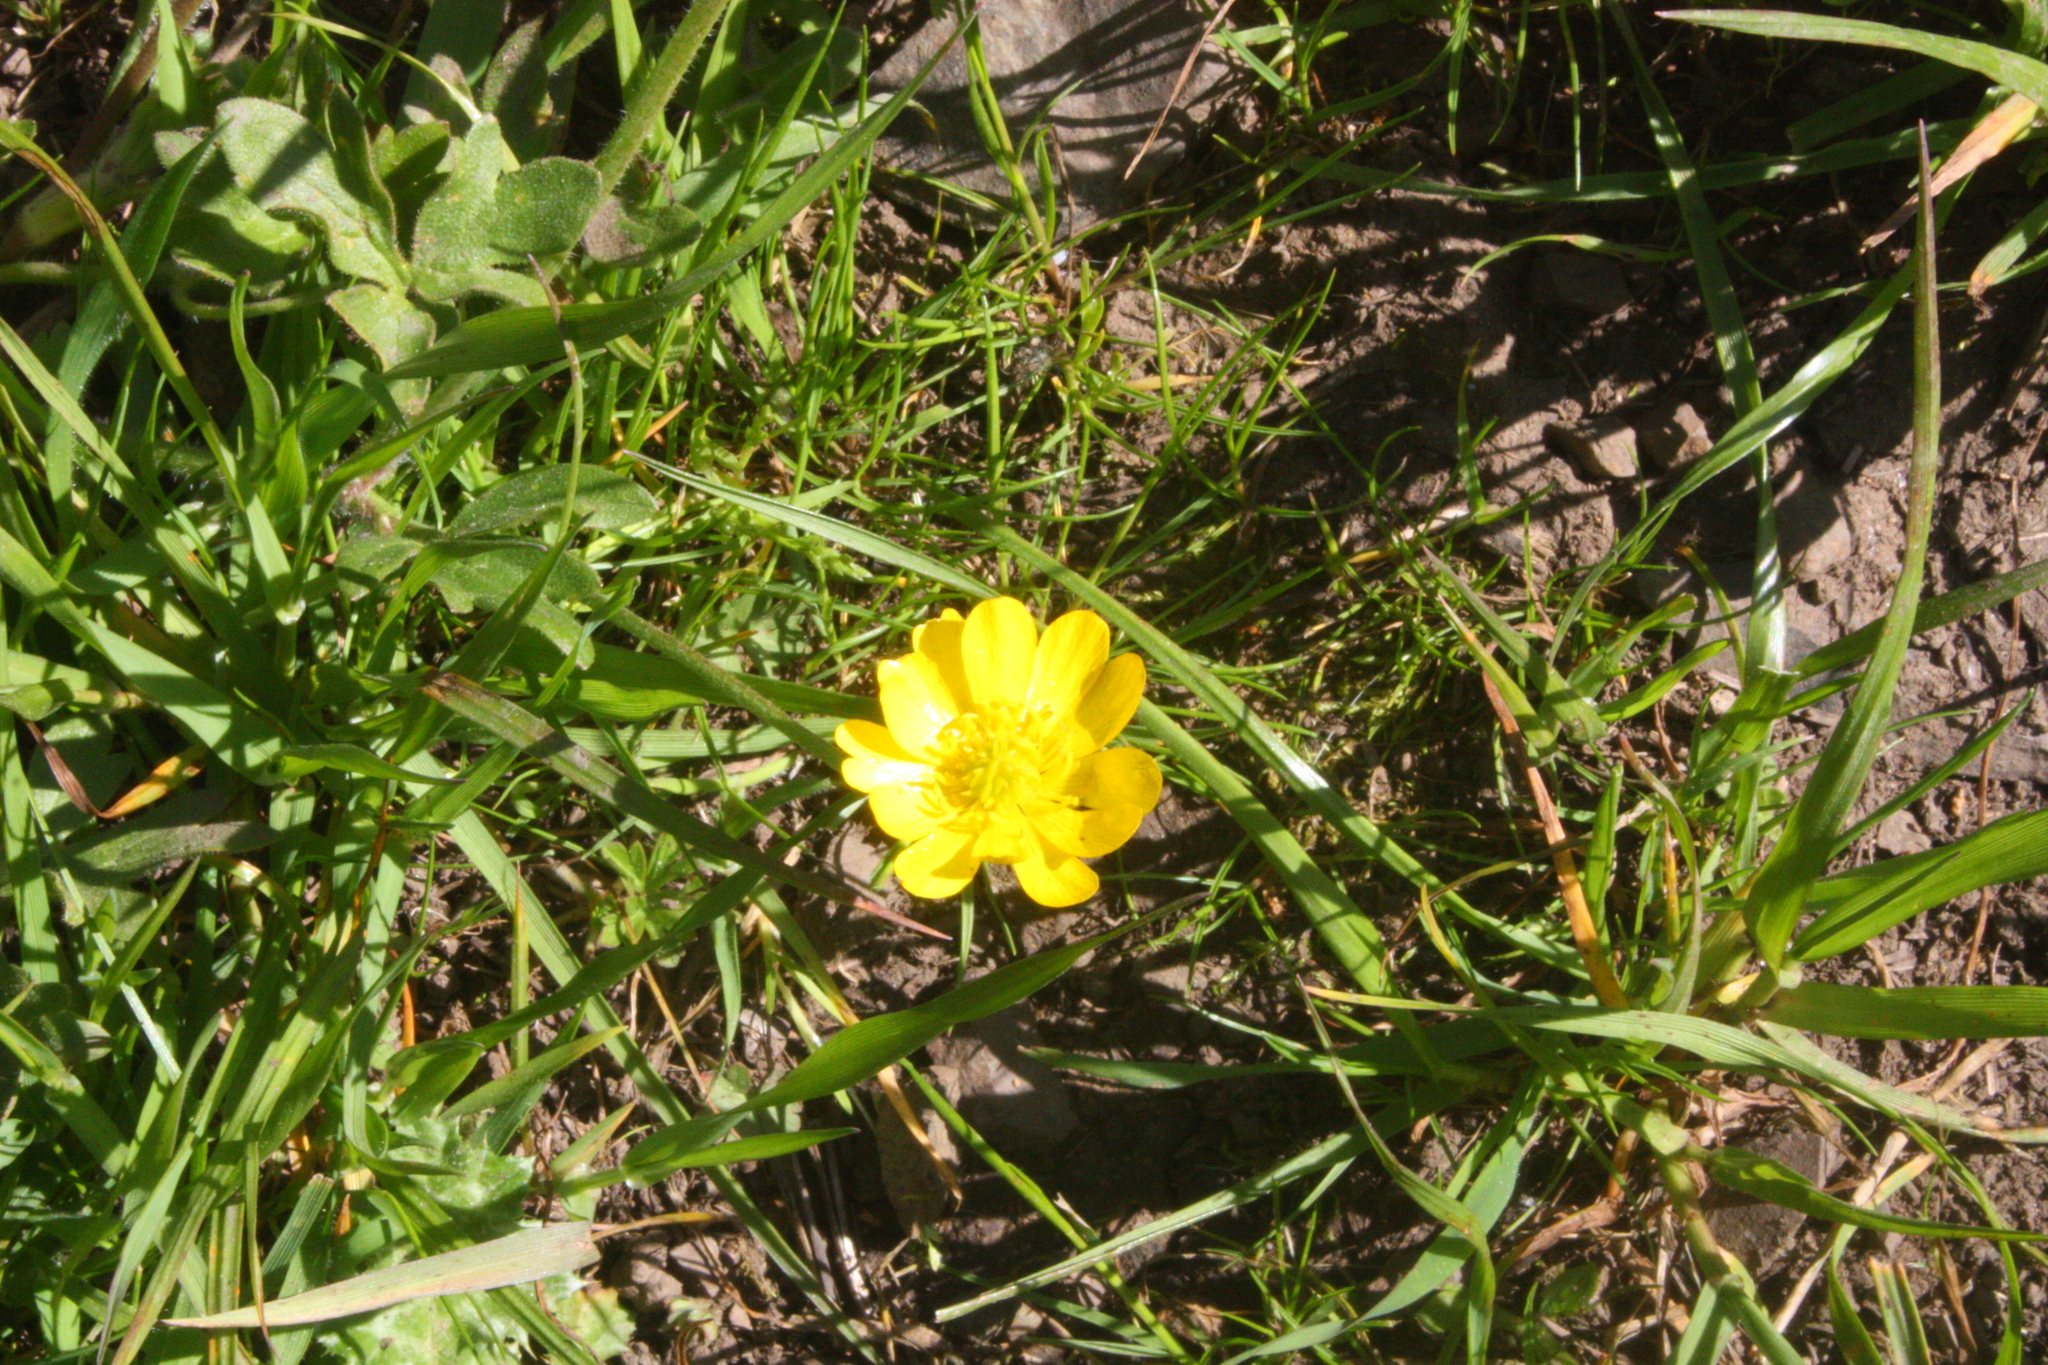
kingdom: Plantae
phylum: Tracheophyta
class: Magnoliopsida
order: Ranunculales
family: Ranunculaceae
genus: Ranunculus
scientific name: Ranunculus californicus
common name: California buttercup
